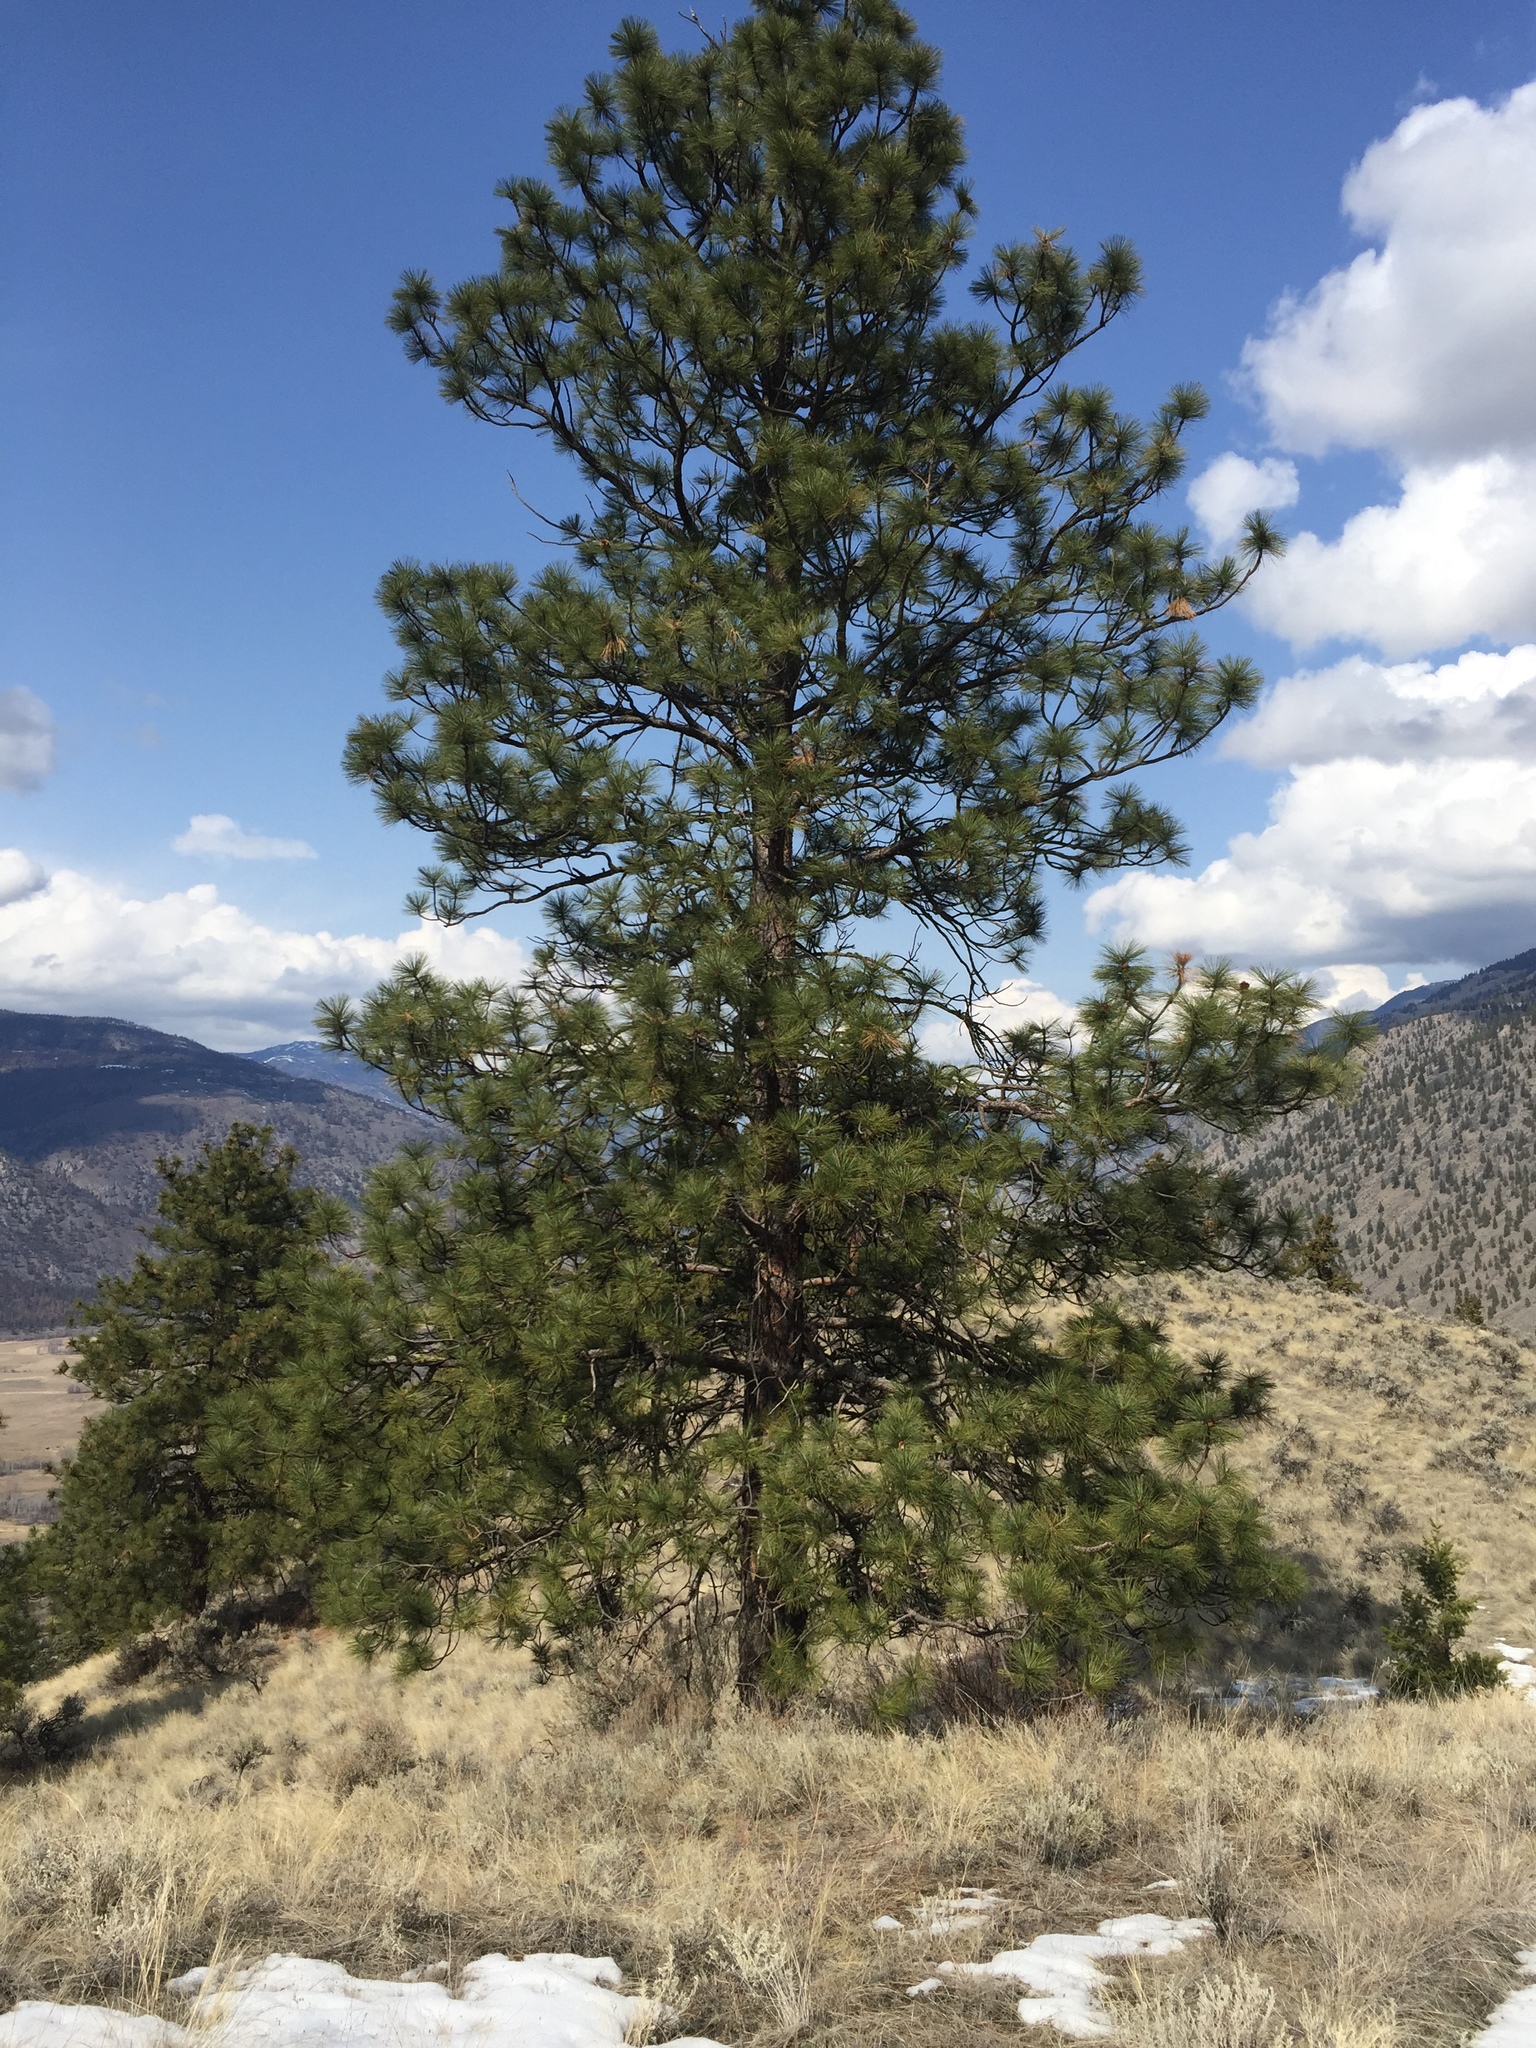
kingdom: Plantae
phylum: Tracheophyta
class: Pinopsida
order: Pinales
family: Pinaceae
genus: Pinus
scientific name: Pinus ponderosa
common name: Western yellow-pine
